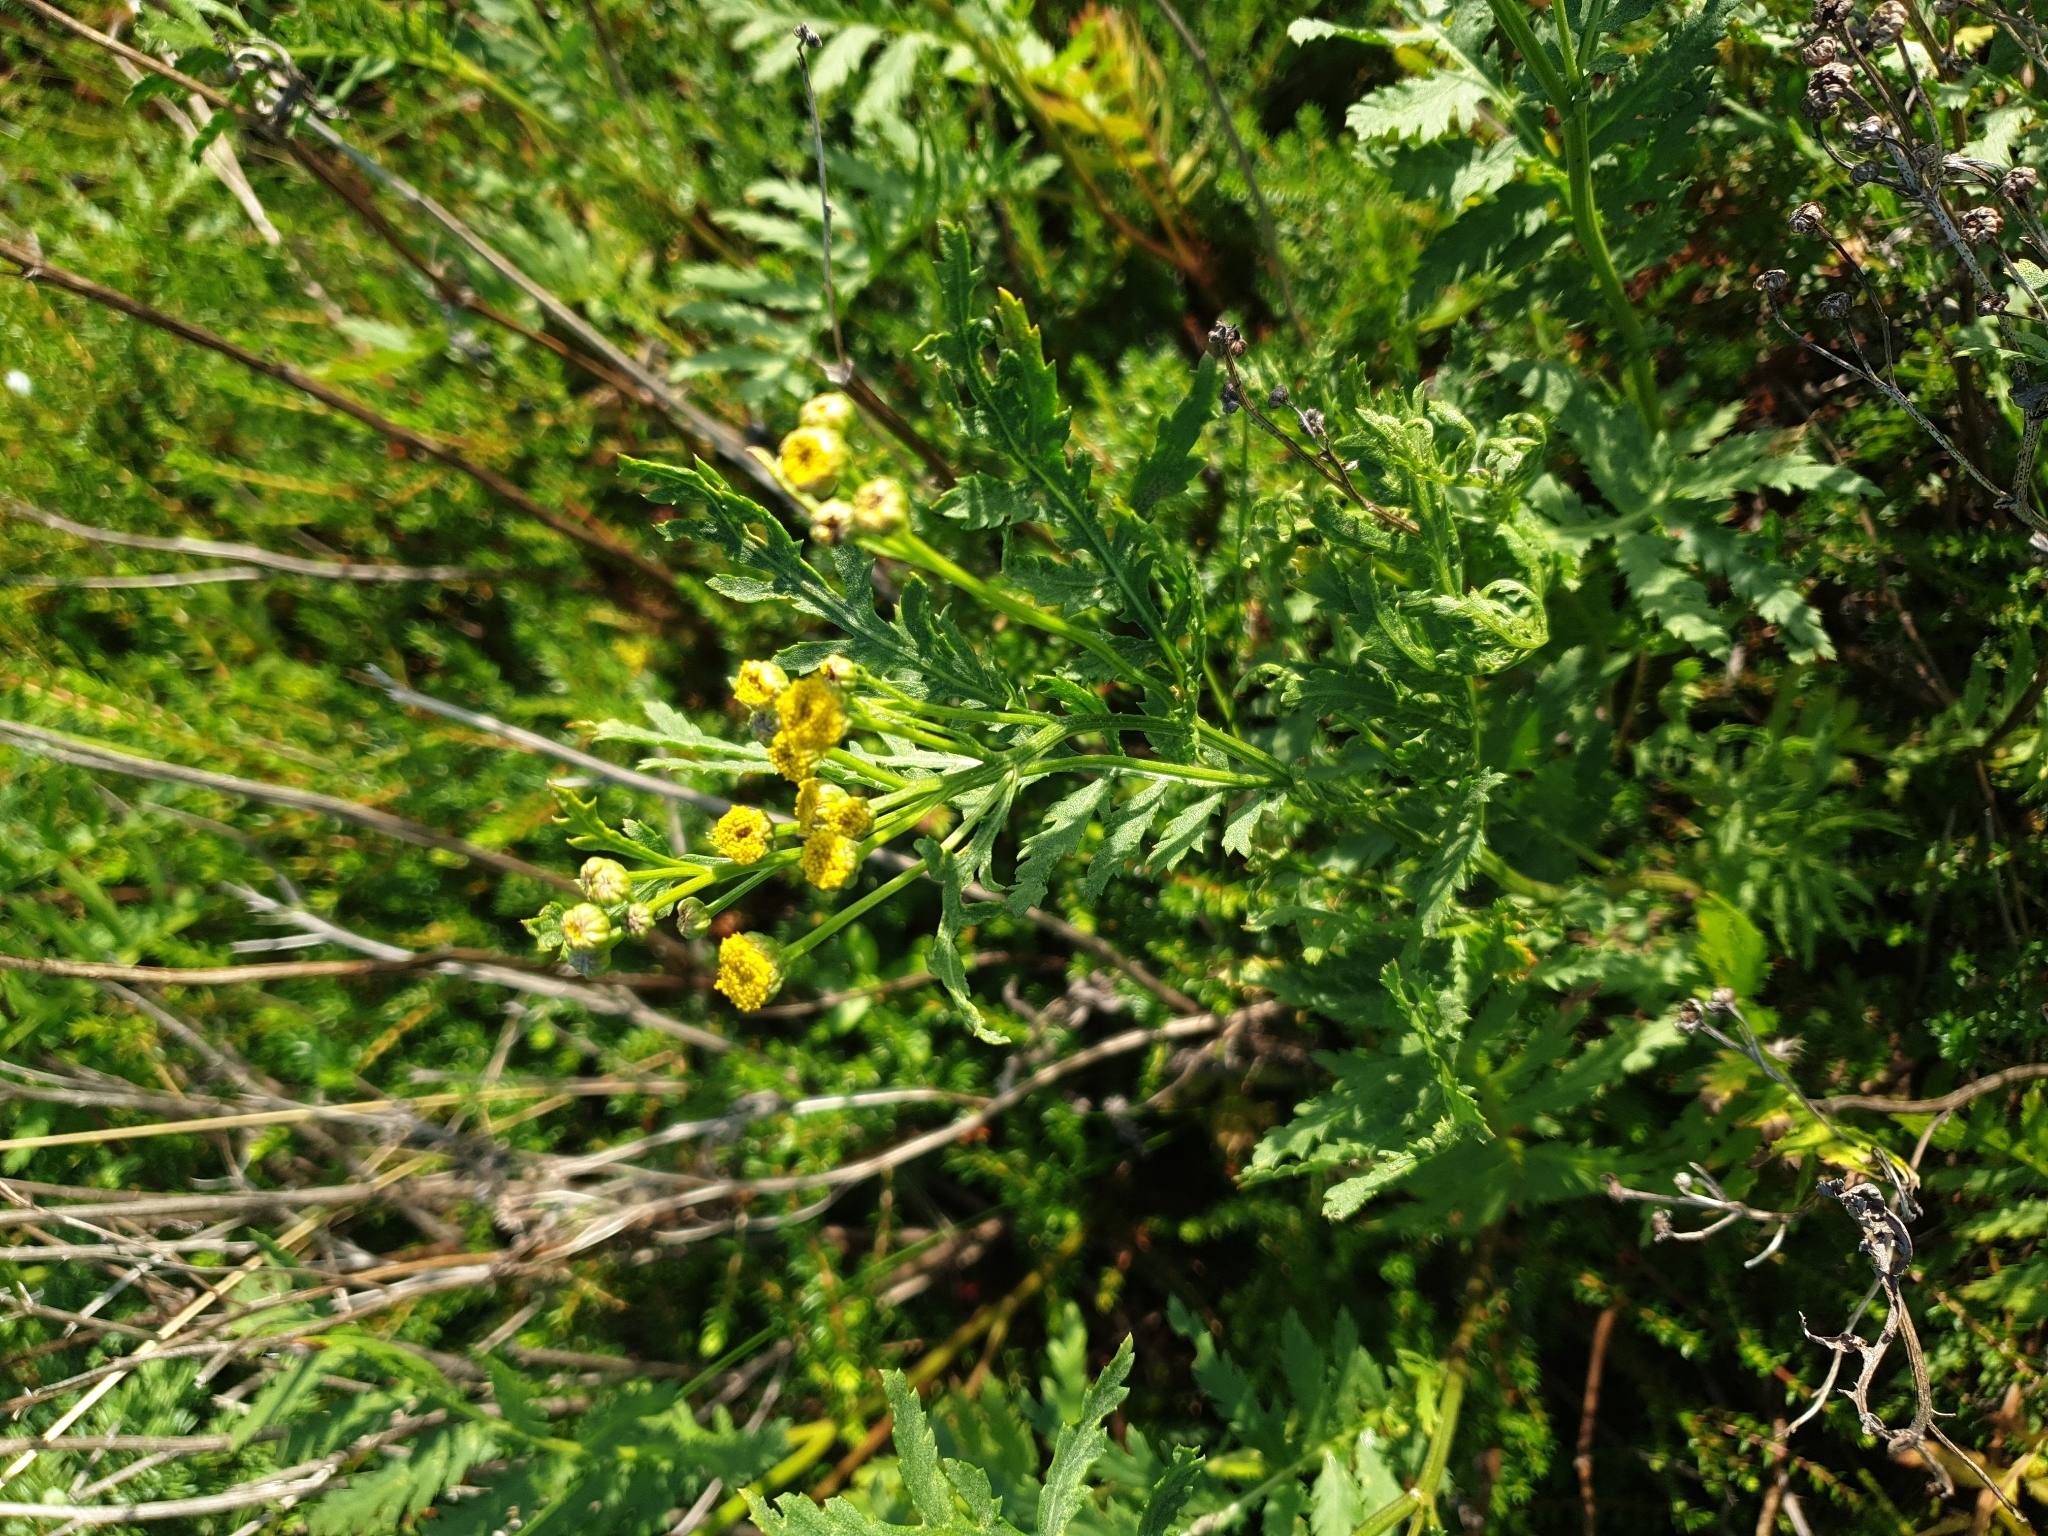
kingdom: Plantae
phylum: Tracheophyta
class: Magnoliopsida
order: Asterales
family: Asteraceae
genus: Tanacetum
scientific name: Tanacetum vulgare
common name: Common tansy
